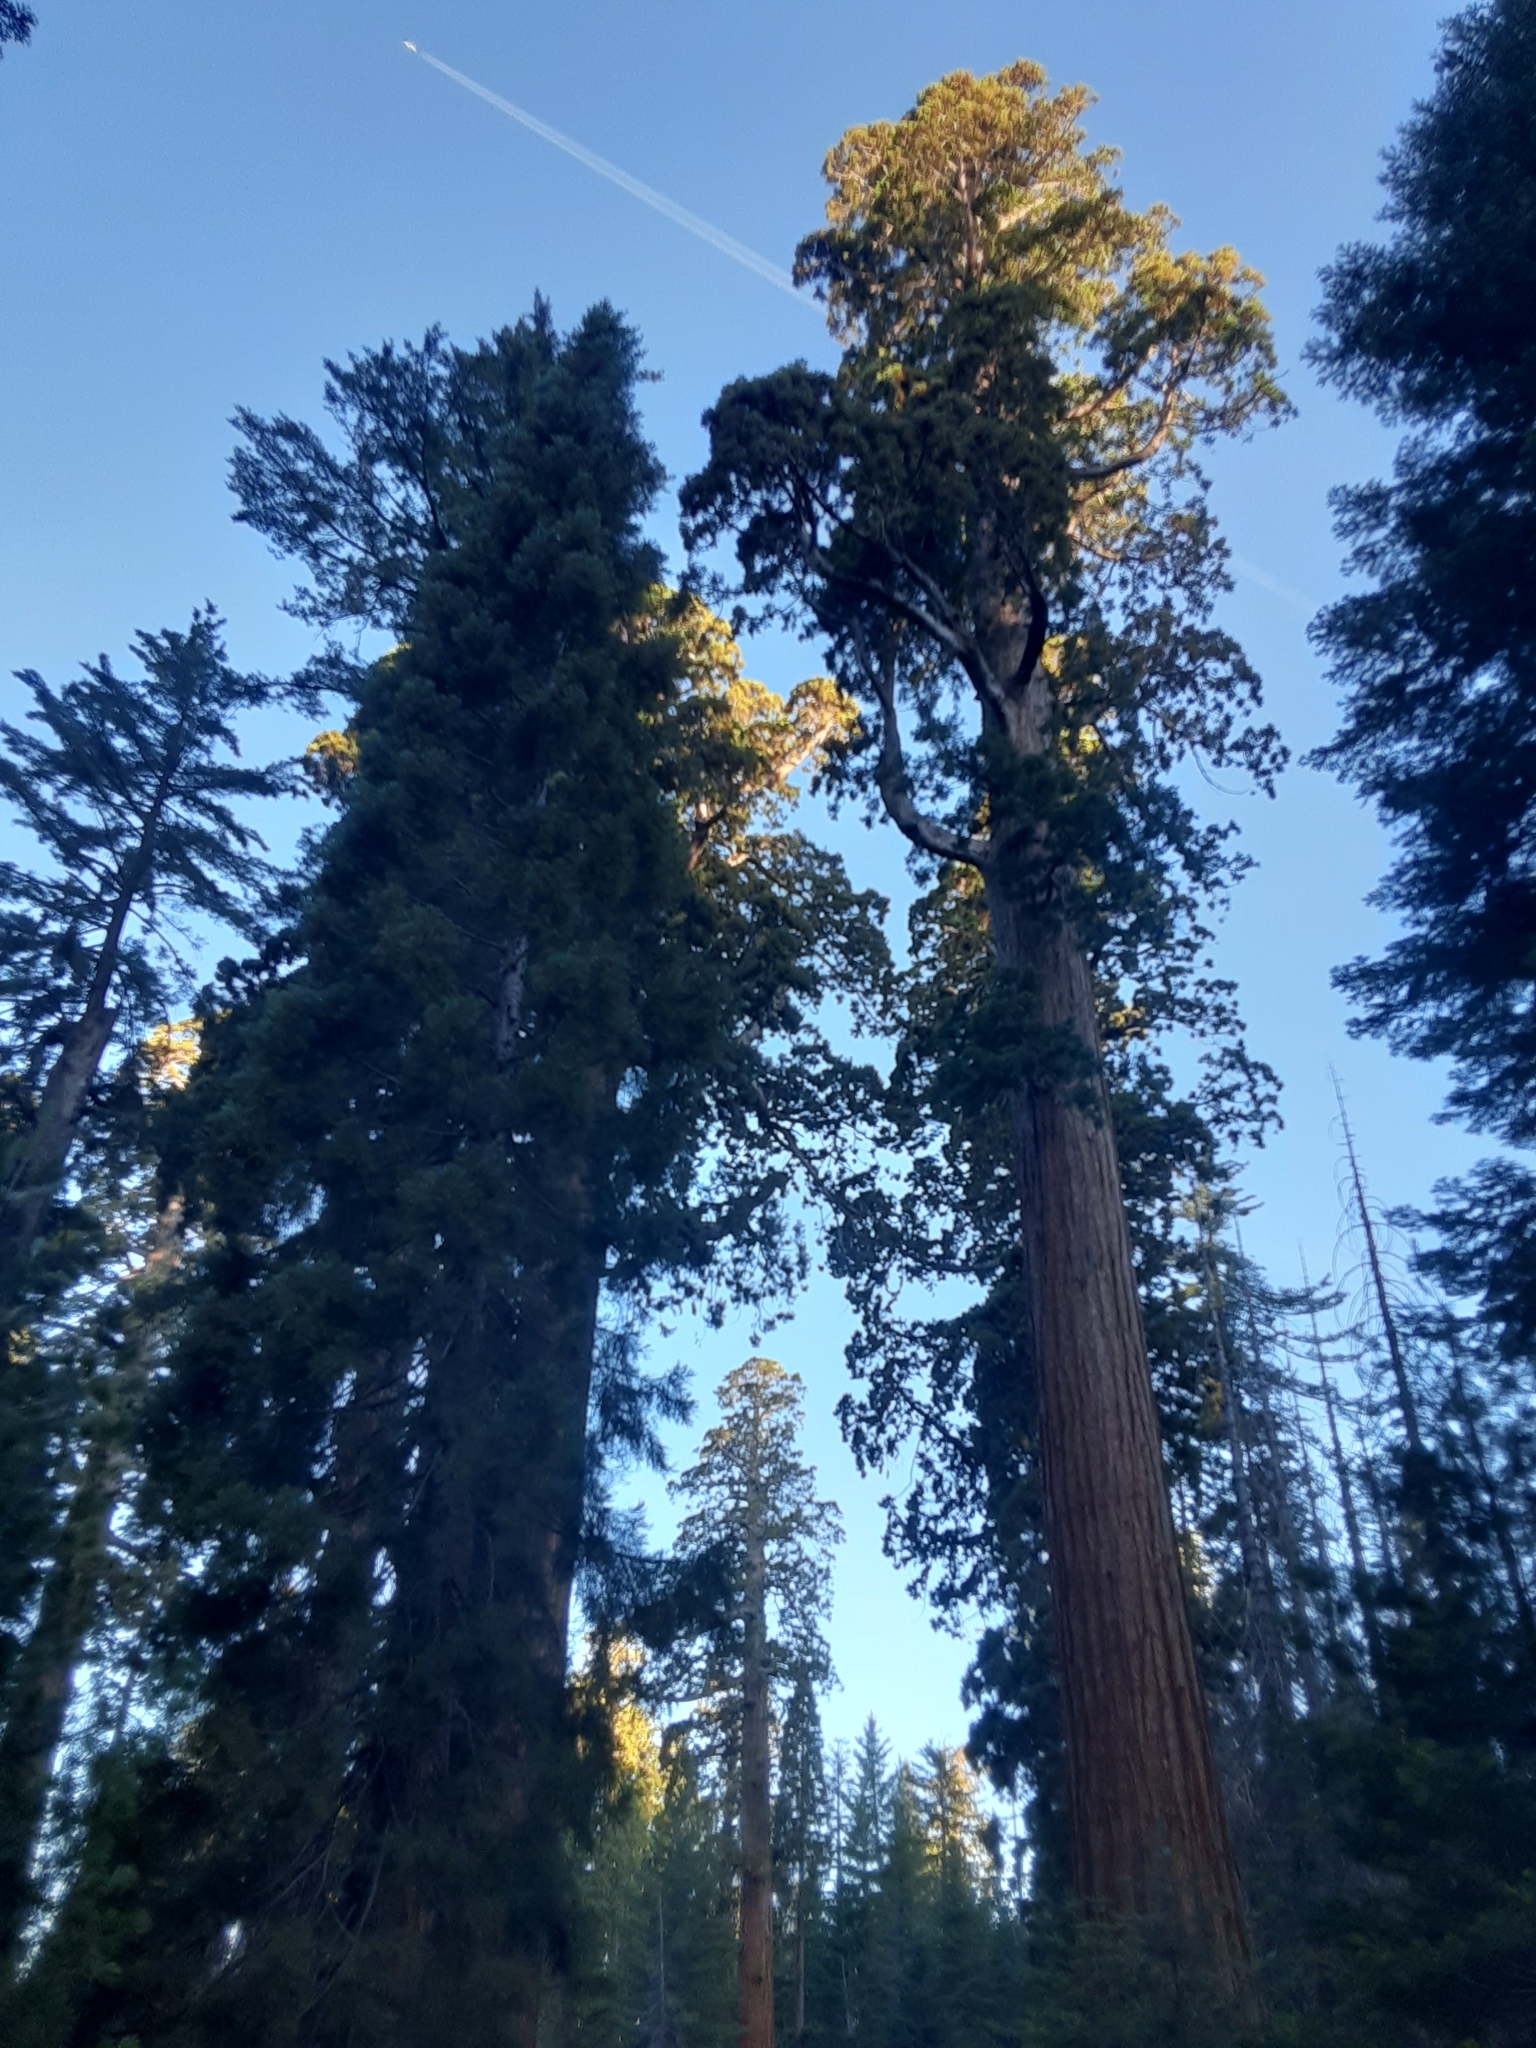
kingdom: Plantae
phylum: Tracheophyta
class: Pinopsida
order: Pinales
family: Cupressaceae
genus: Sequoiadendron
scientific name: Sequoiadendron giganteum
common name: Wellingtonia
